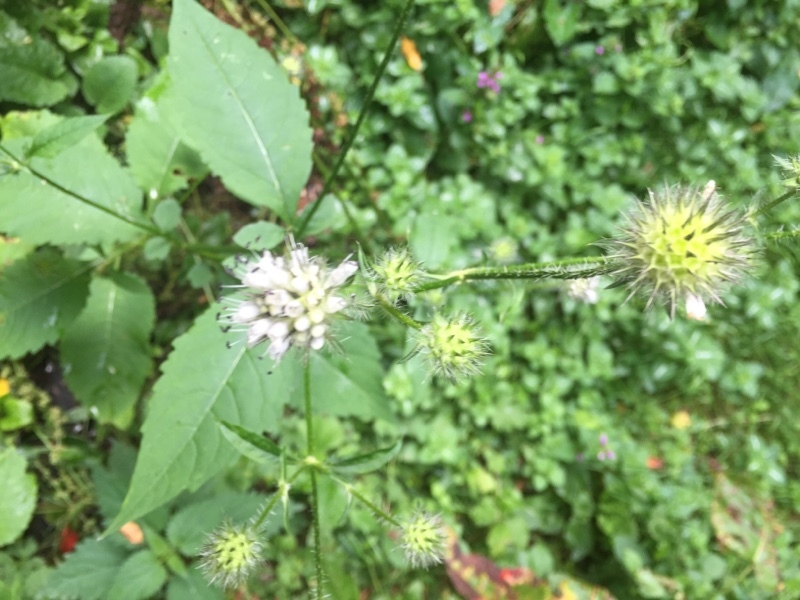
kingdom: Plantae
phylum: Tracheophyta
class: Magnoliopsida
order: Dipsacales
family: Caprifoliaceae
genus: Dipsacus
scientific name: Dipsacus pilosus
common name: Small teasel
